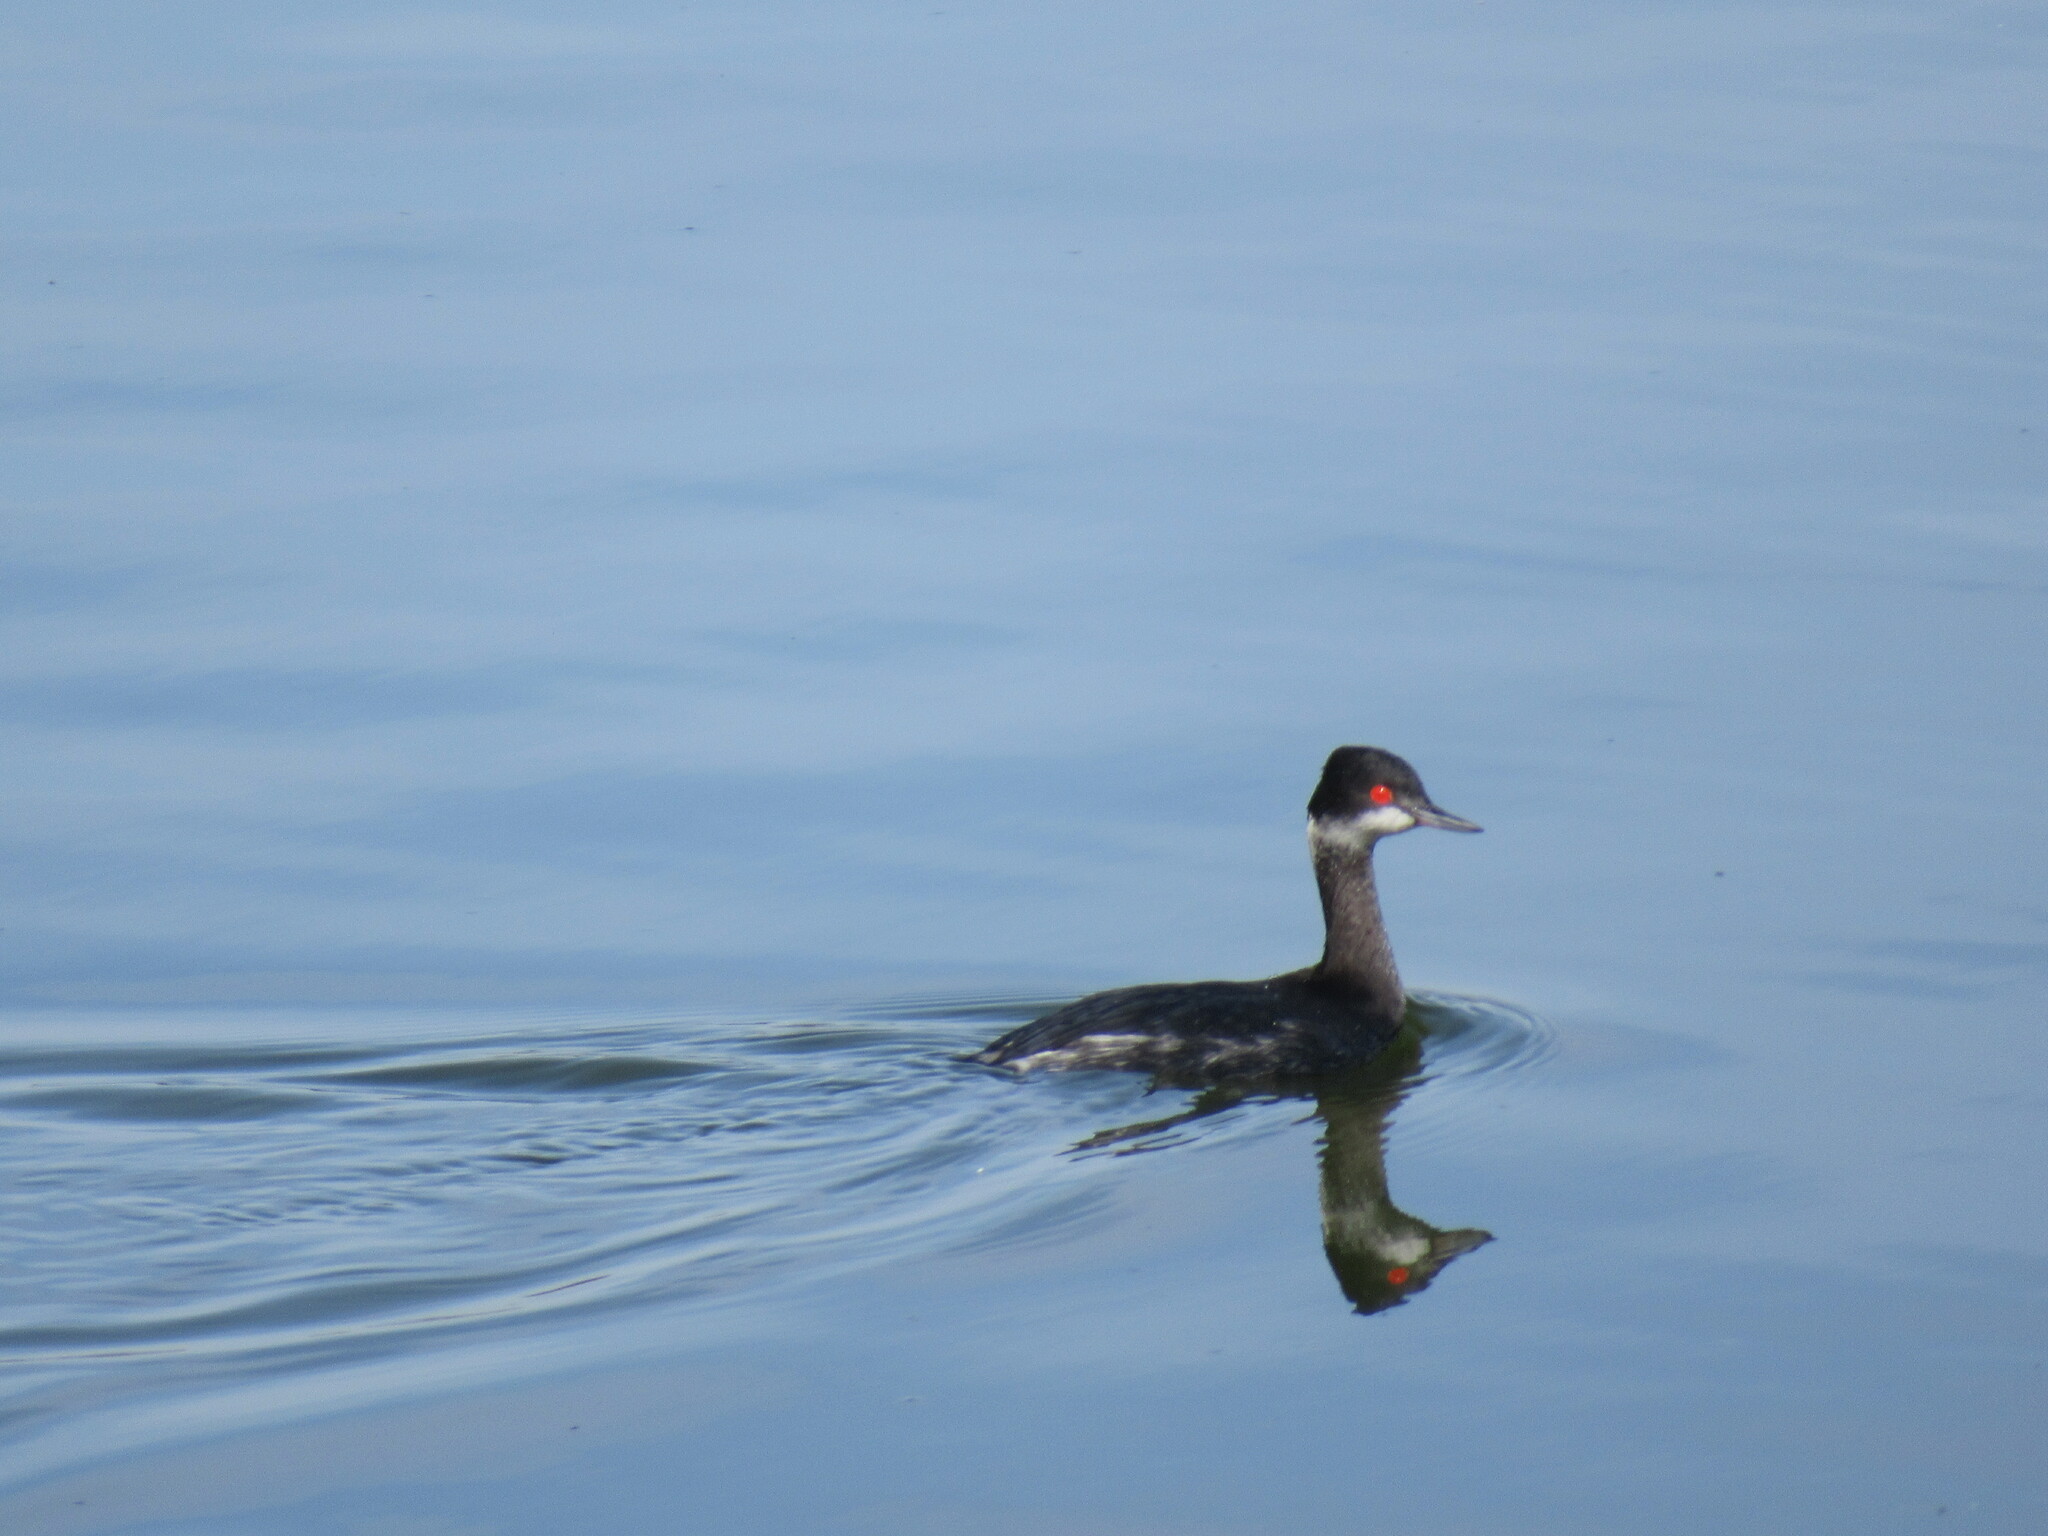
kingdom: Animalia
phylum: Chordata
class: Aves
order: Podicipediformes
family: Podicipedidae
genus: Podiceps
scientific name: Podiceps nigricollis
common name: Black-necked grebe
